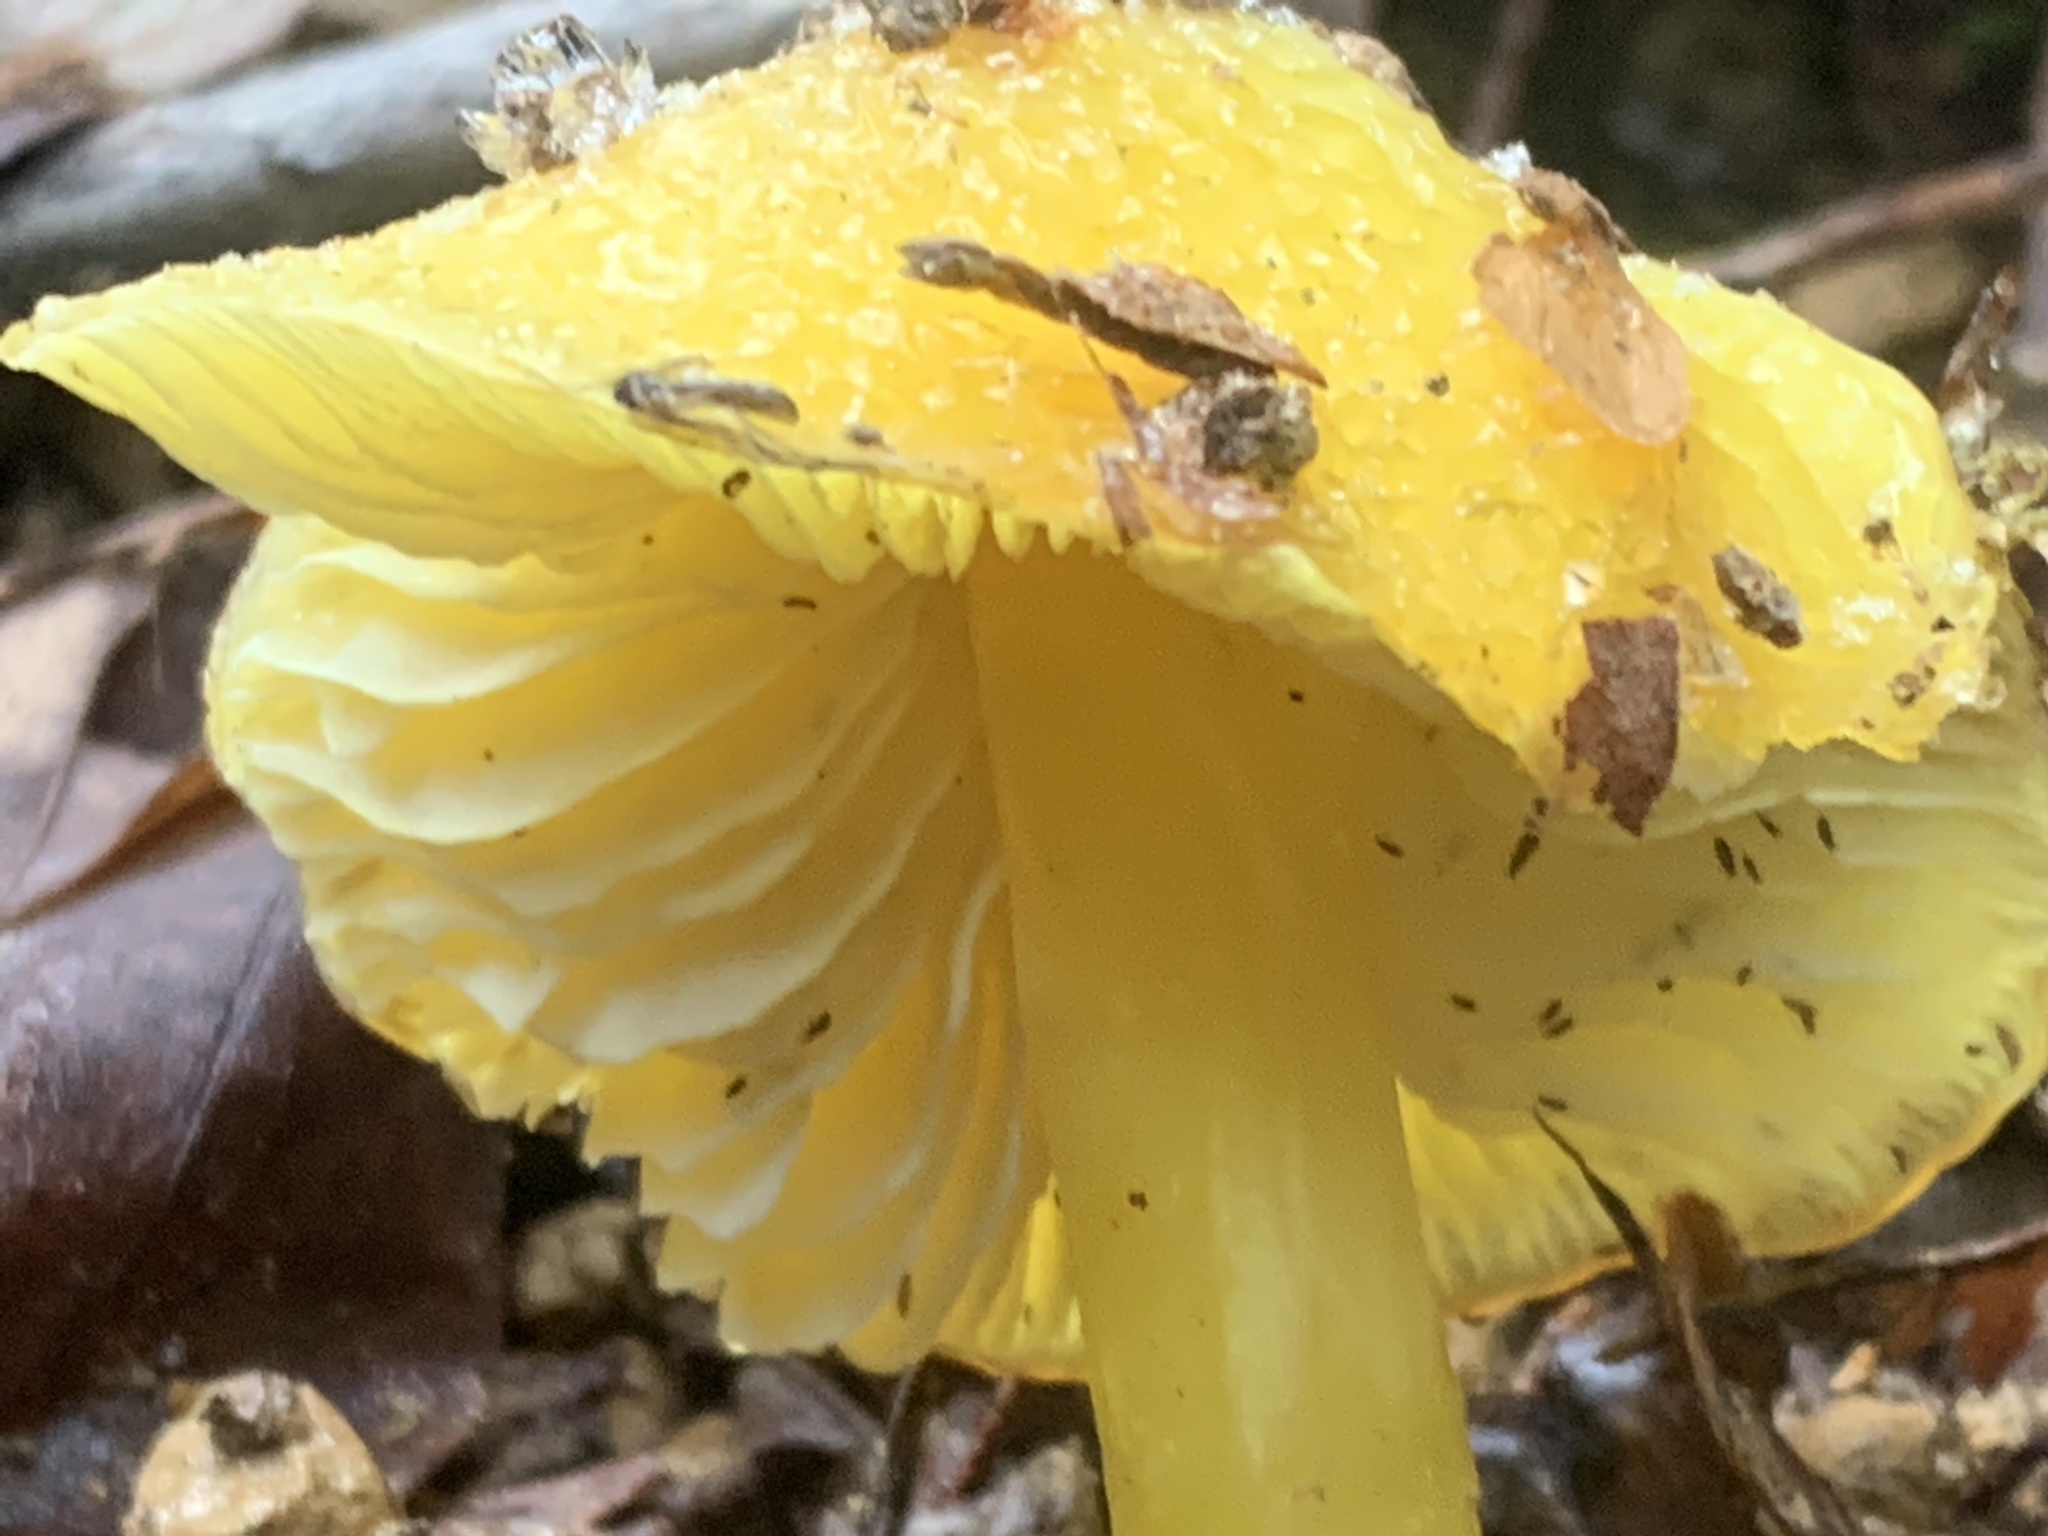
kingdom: Fungi
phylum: Basidiomycota
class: Agaricomycetes
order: Agaricales
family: Hygrophoraceae
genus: Hygrocybe
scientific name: Hygrocybe flavescens
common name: Golden waxy cap
